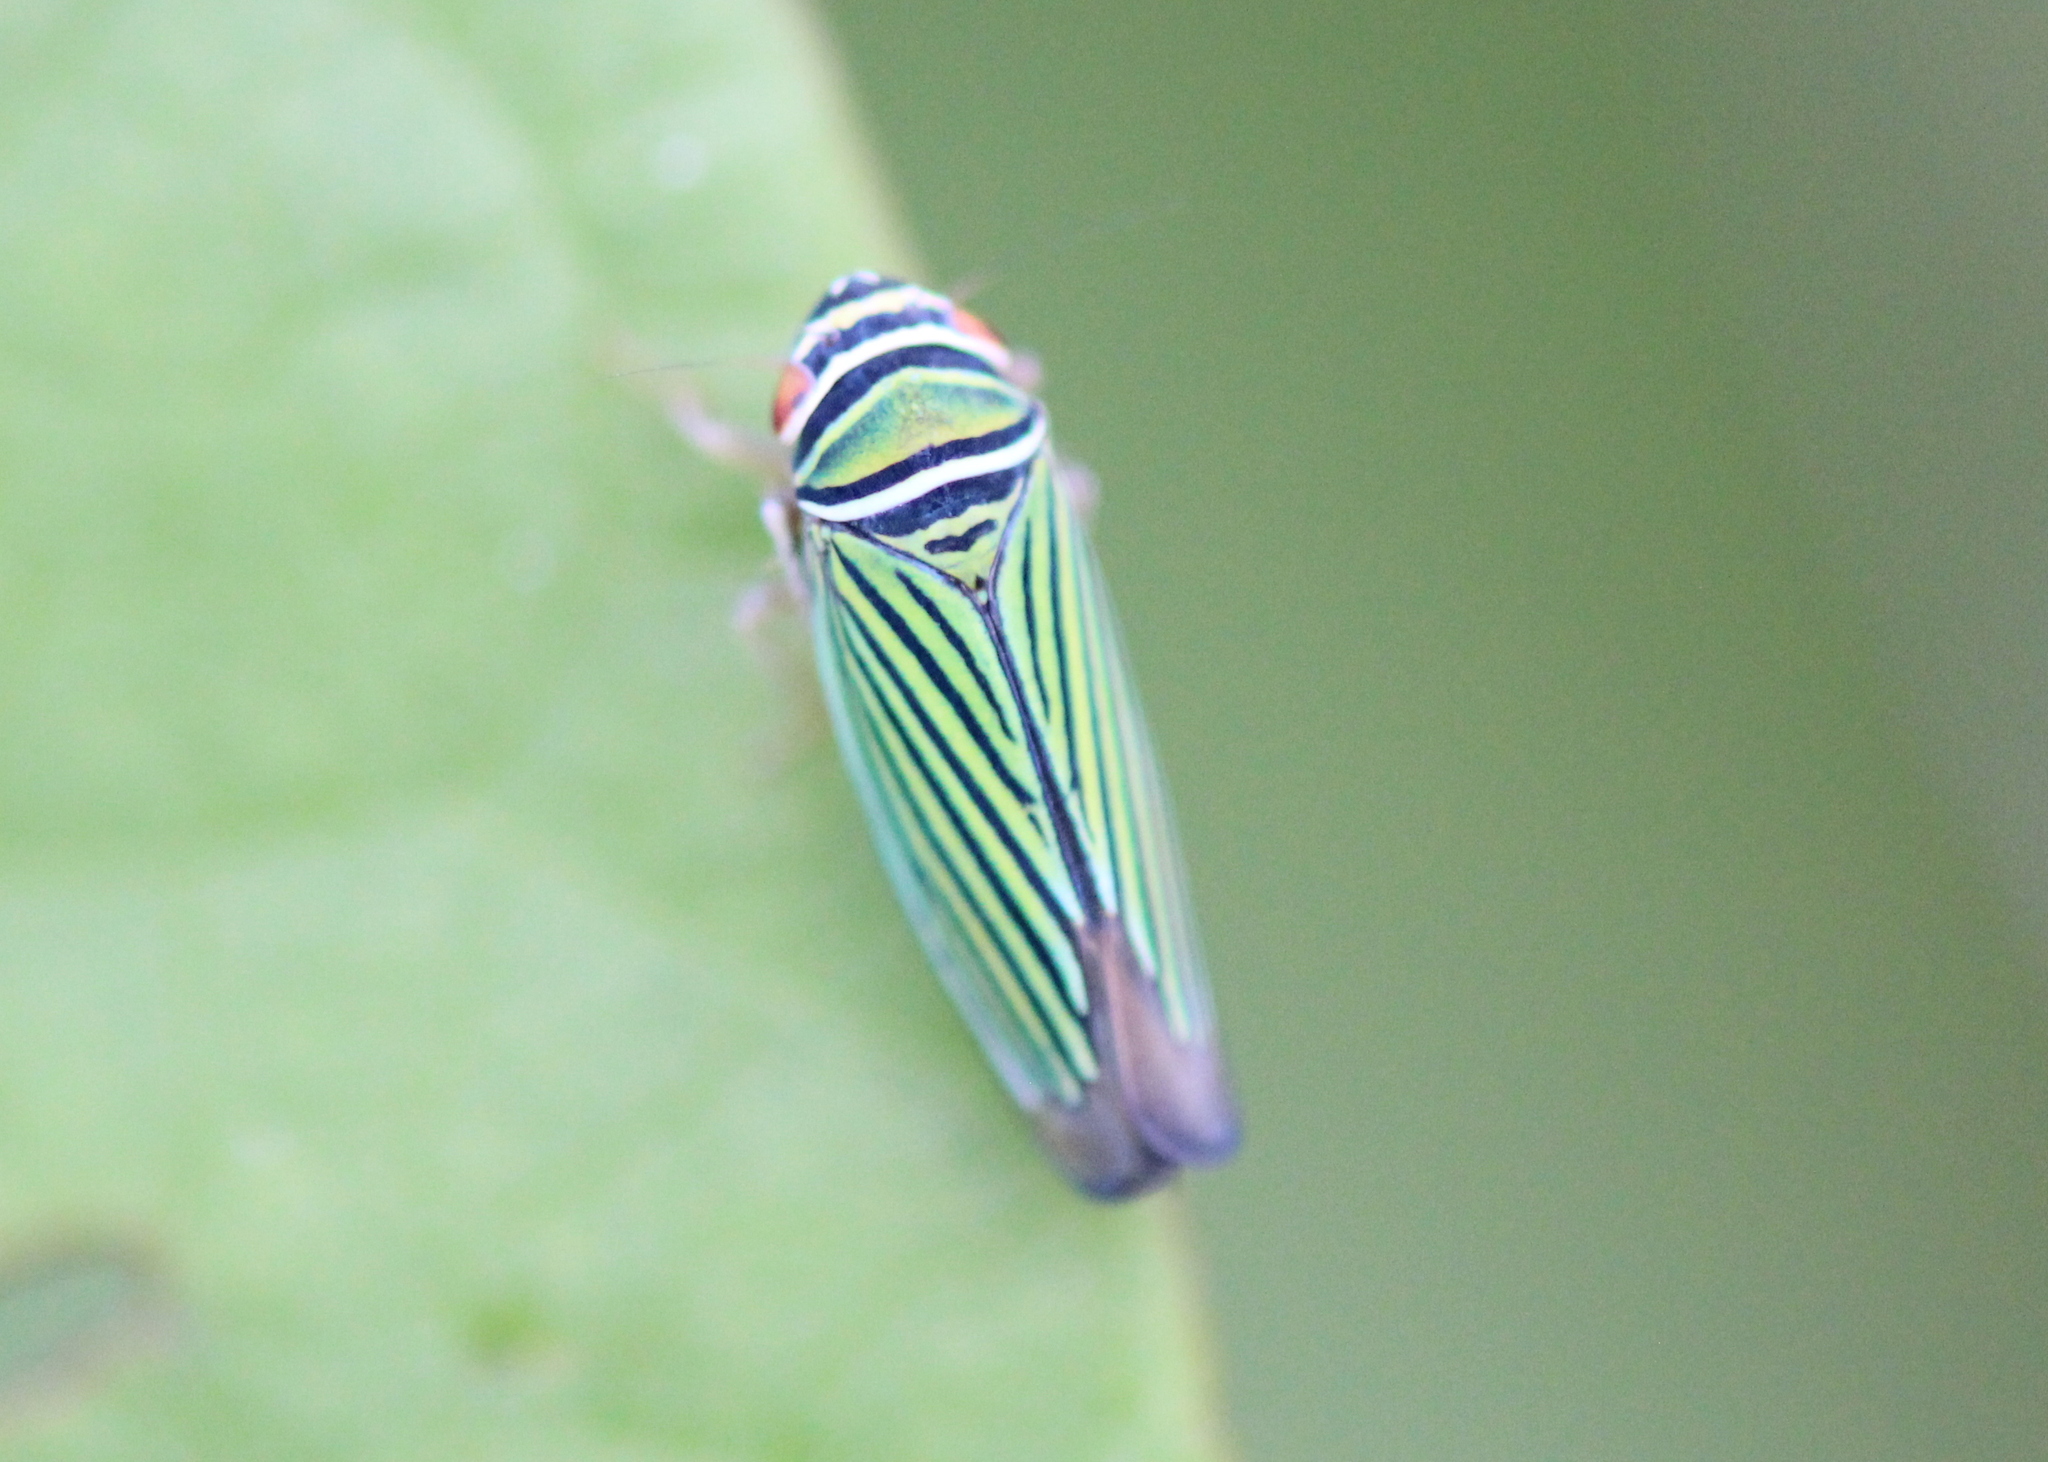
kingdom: Animalia
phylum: Arthropoda
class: Insecta
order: Hemiptera
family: Cicadellidae
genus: Tylozygus
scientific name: Tylozygus bifidus
